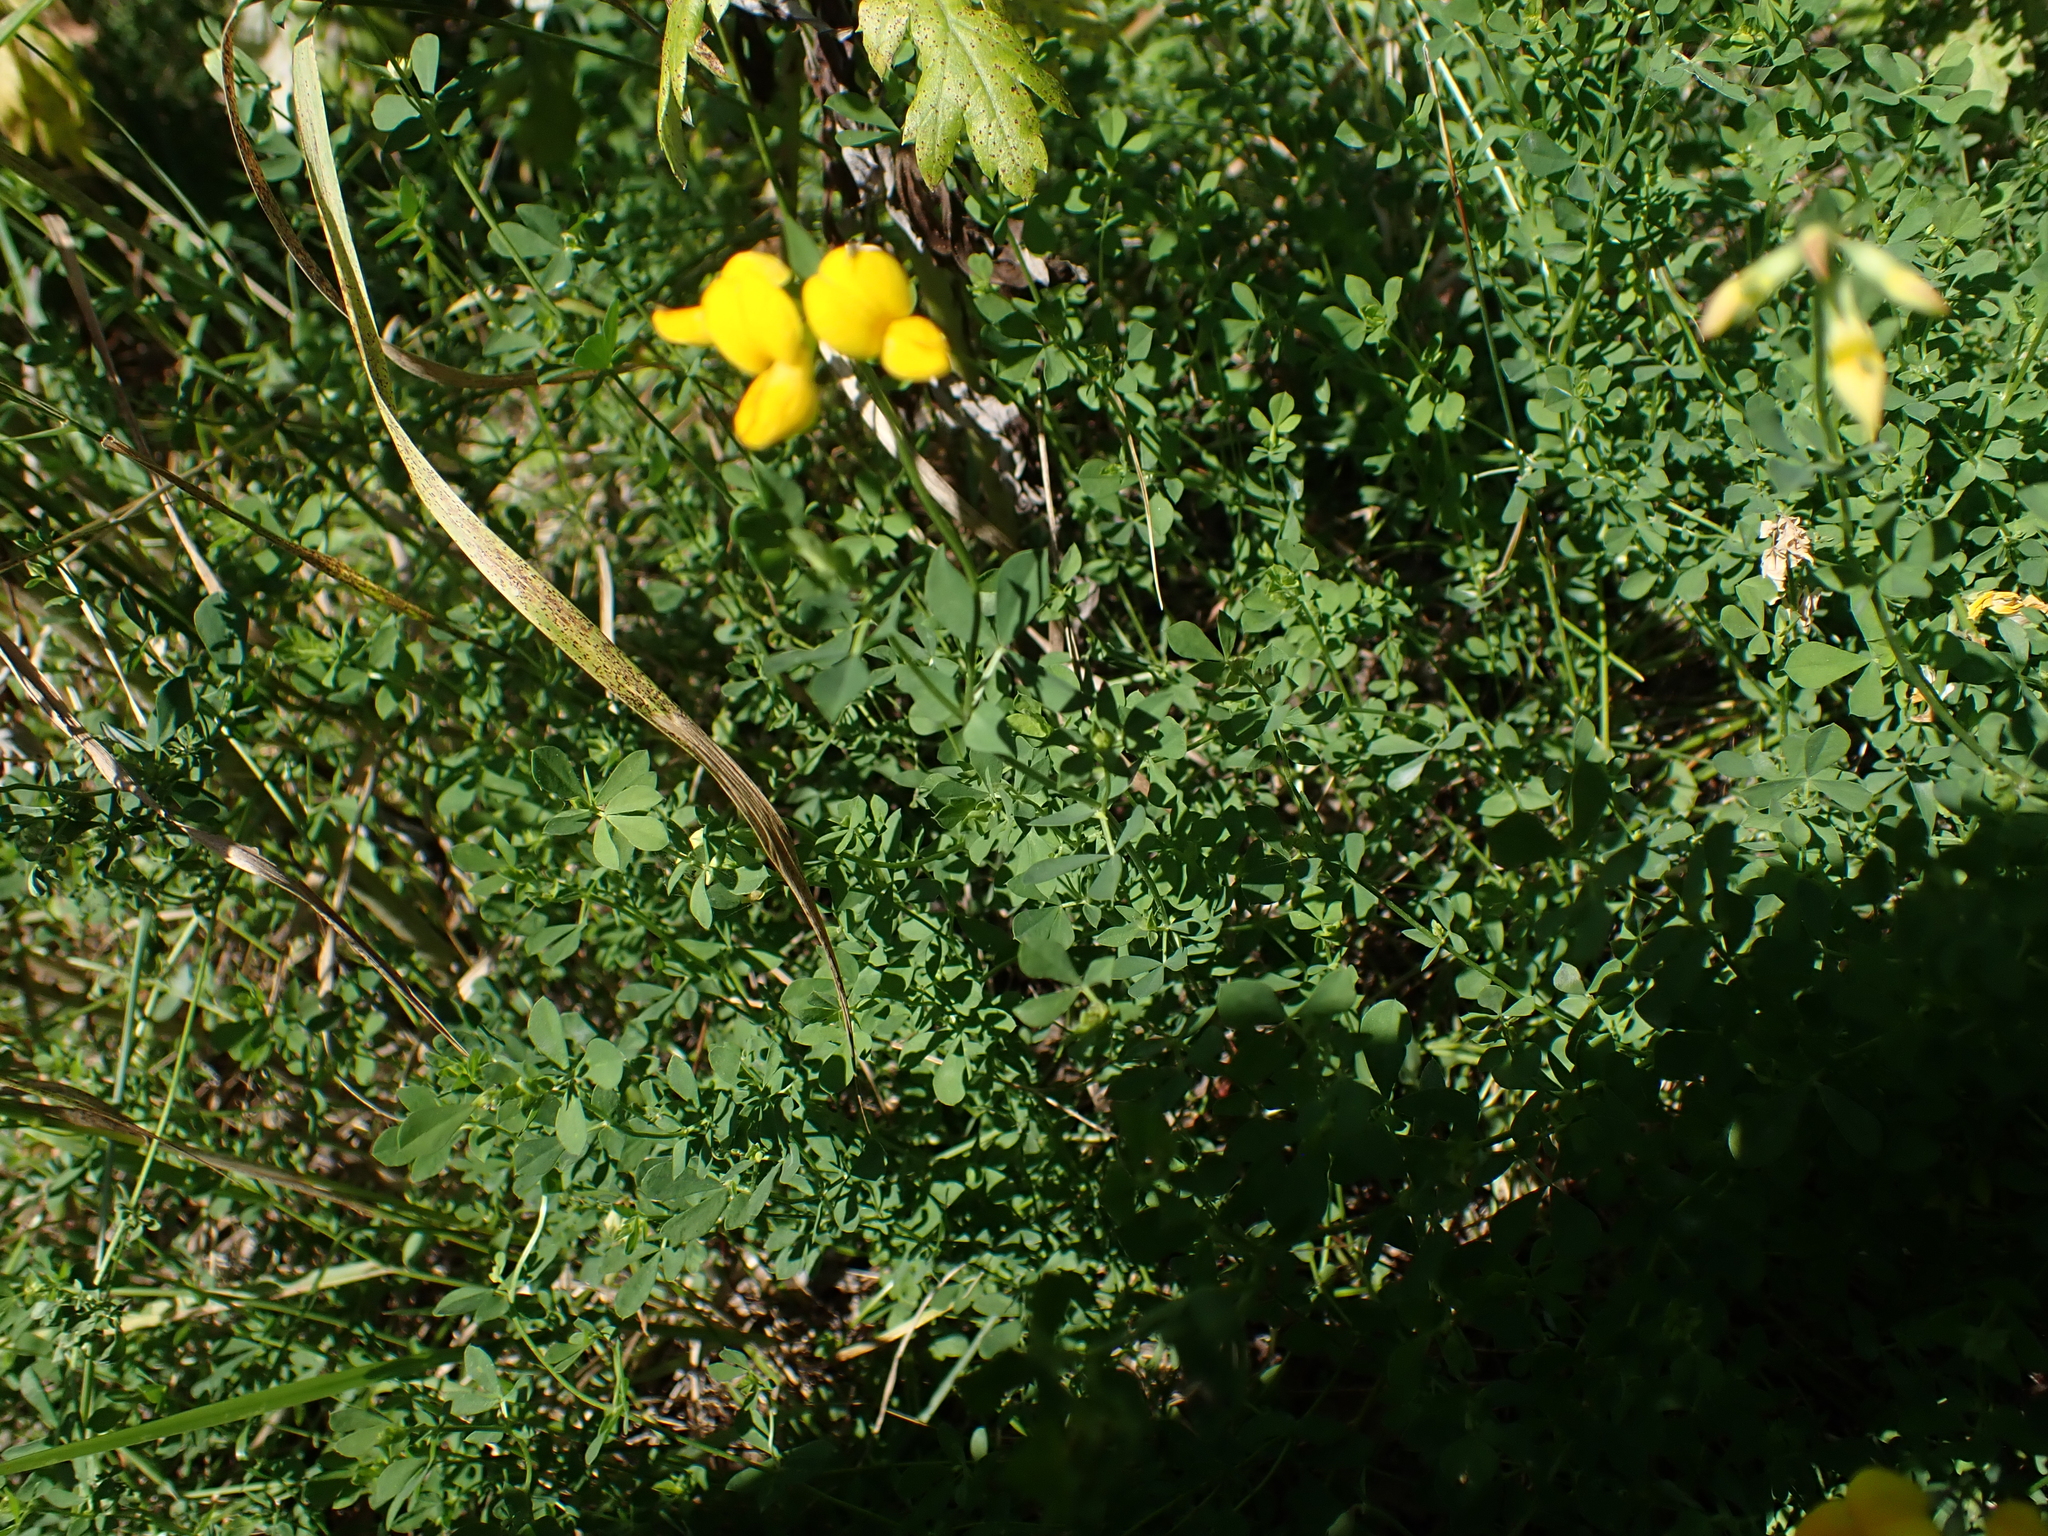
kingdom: Plantae
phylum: Tracheophyta
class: Magnoliopsida
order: Fabales
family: Fabaceae
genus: Lotus
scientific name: Lotus corniculatus
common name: Common bird's-foot-trefoil
